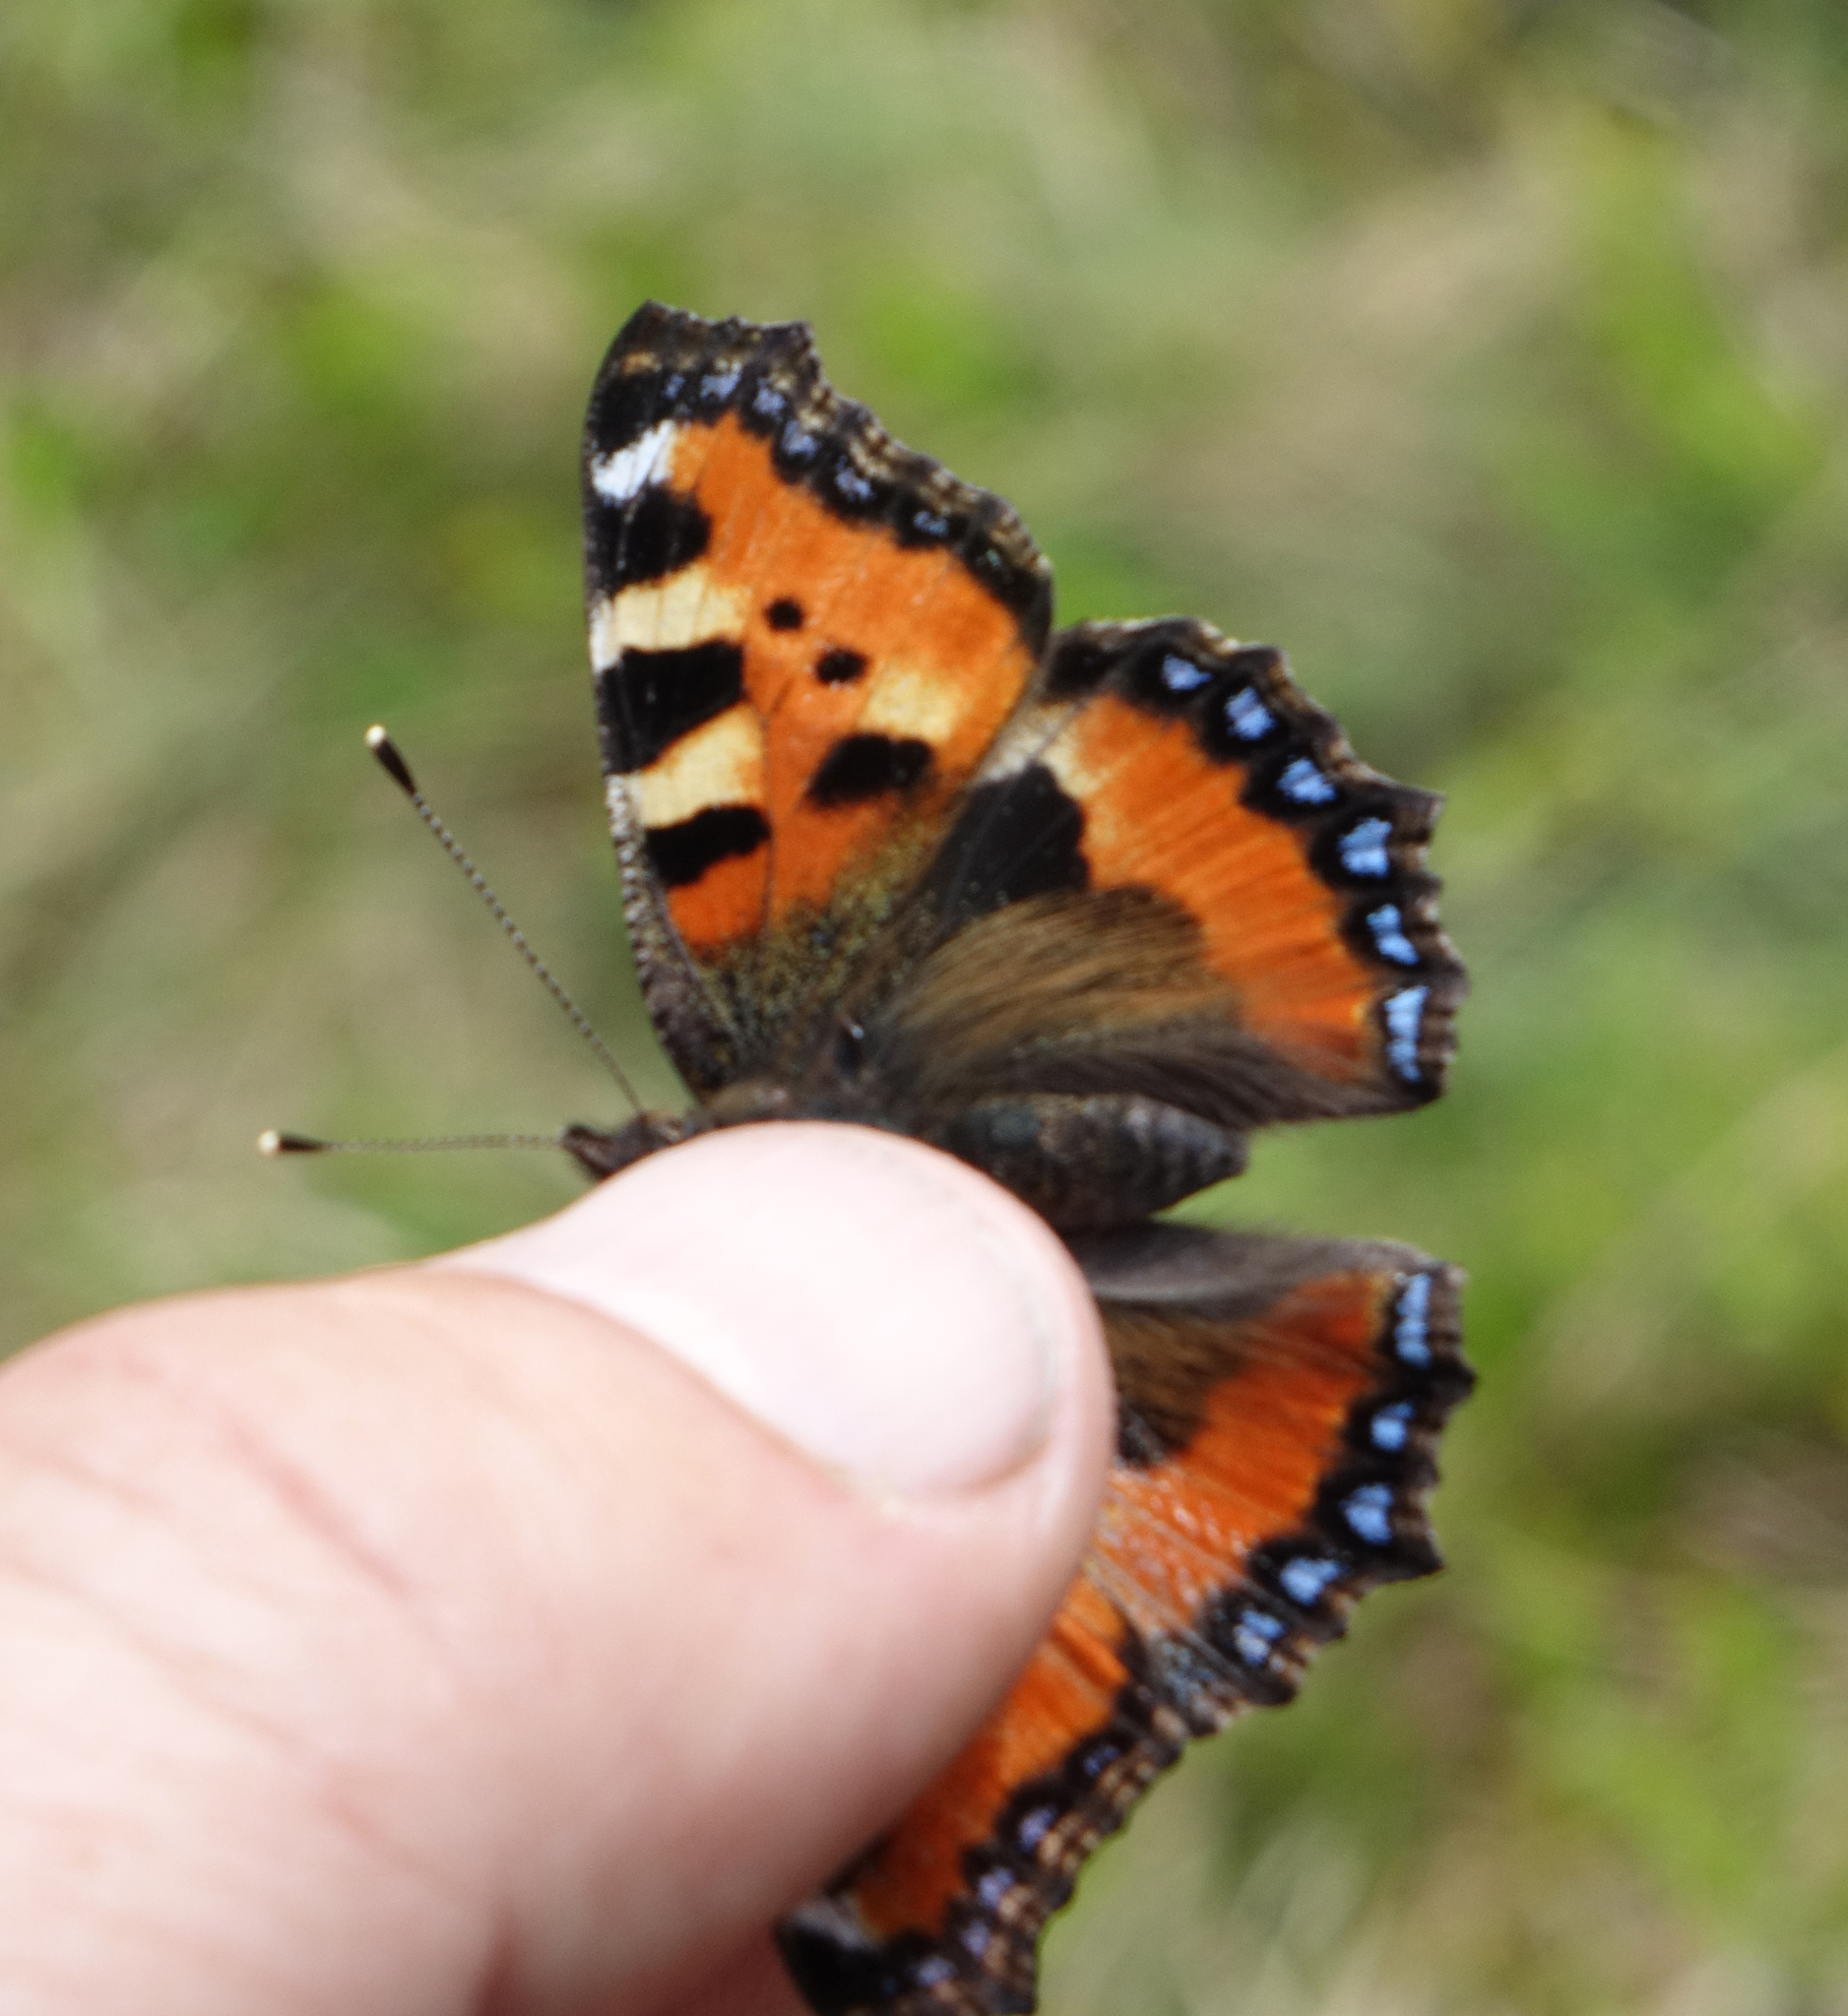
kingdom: Animalia
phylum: Arthropoda
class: Insecta
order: Lepidoptera
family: Nymphalidae
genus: Aglais
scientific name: Aglais urticae
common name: Small tortoiseshell
